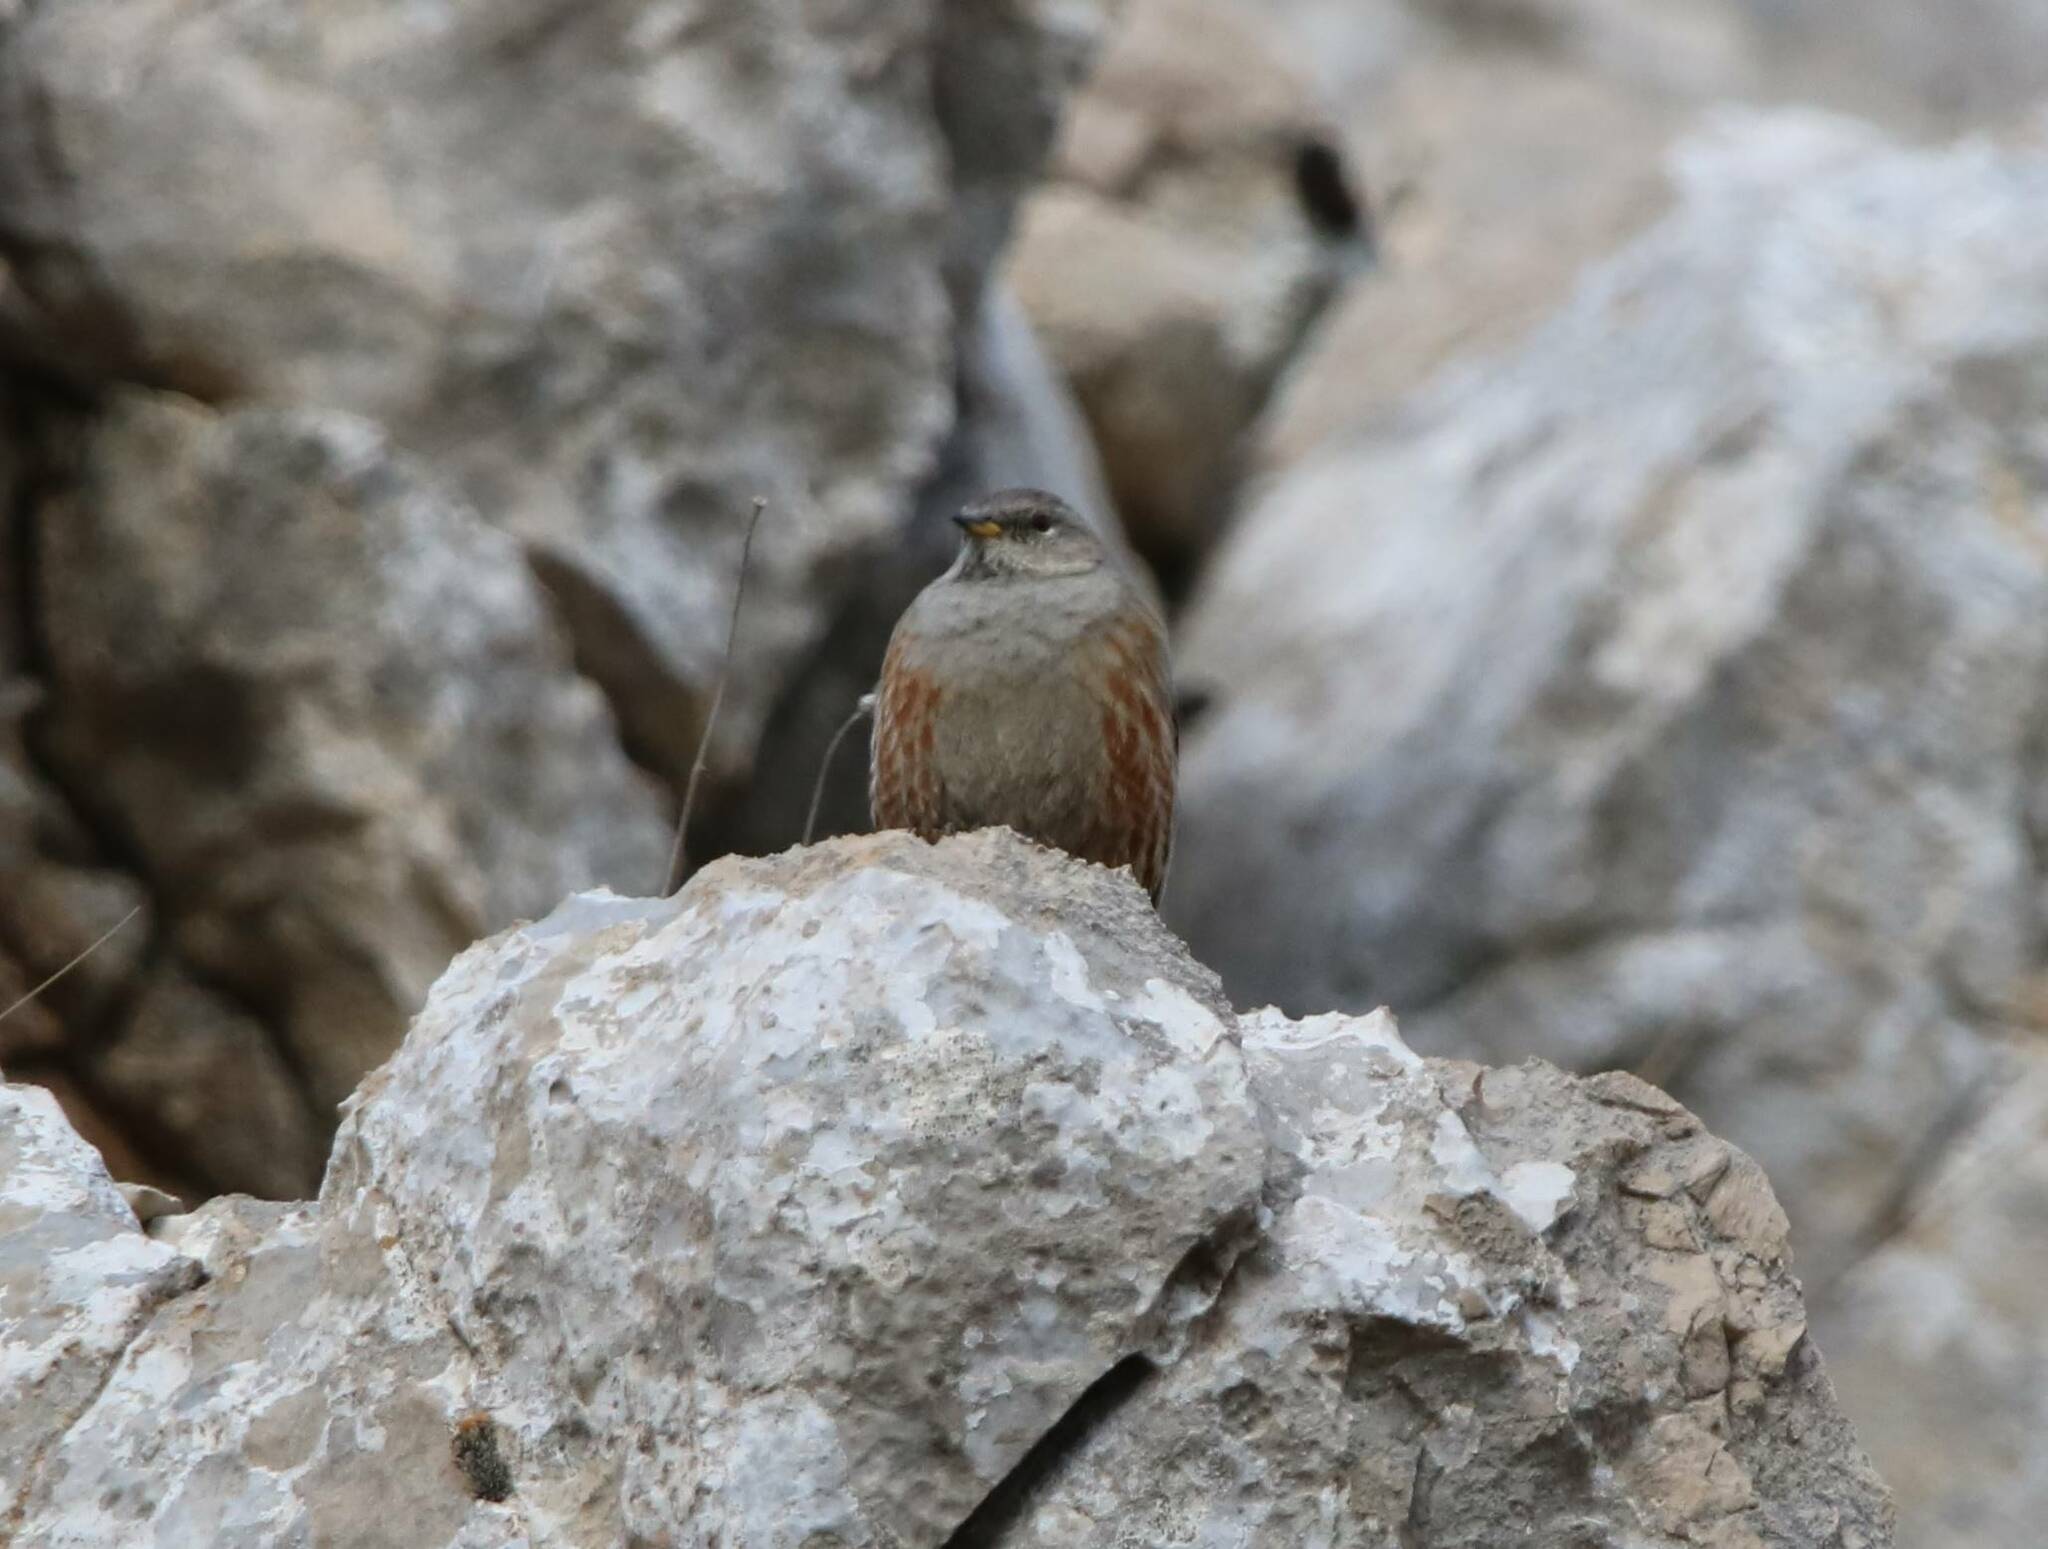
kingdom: Animalia
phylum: Chordata
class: Aves
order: Passeriformes
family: Prunellidae
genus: Prunella
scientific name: Prunella collaris
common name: Alpine accentor
